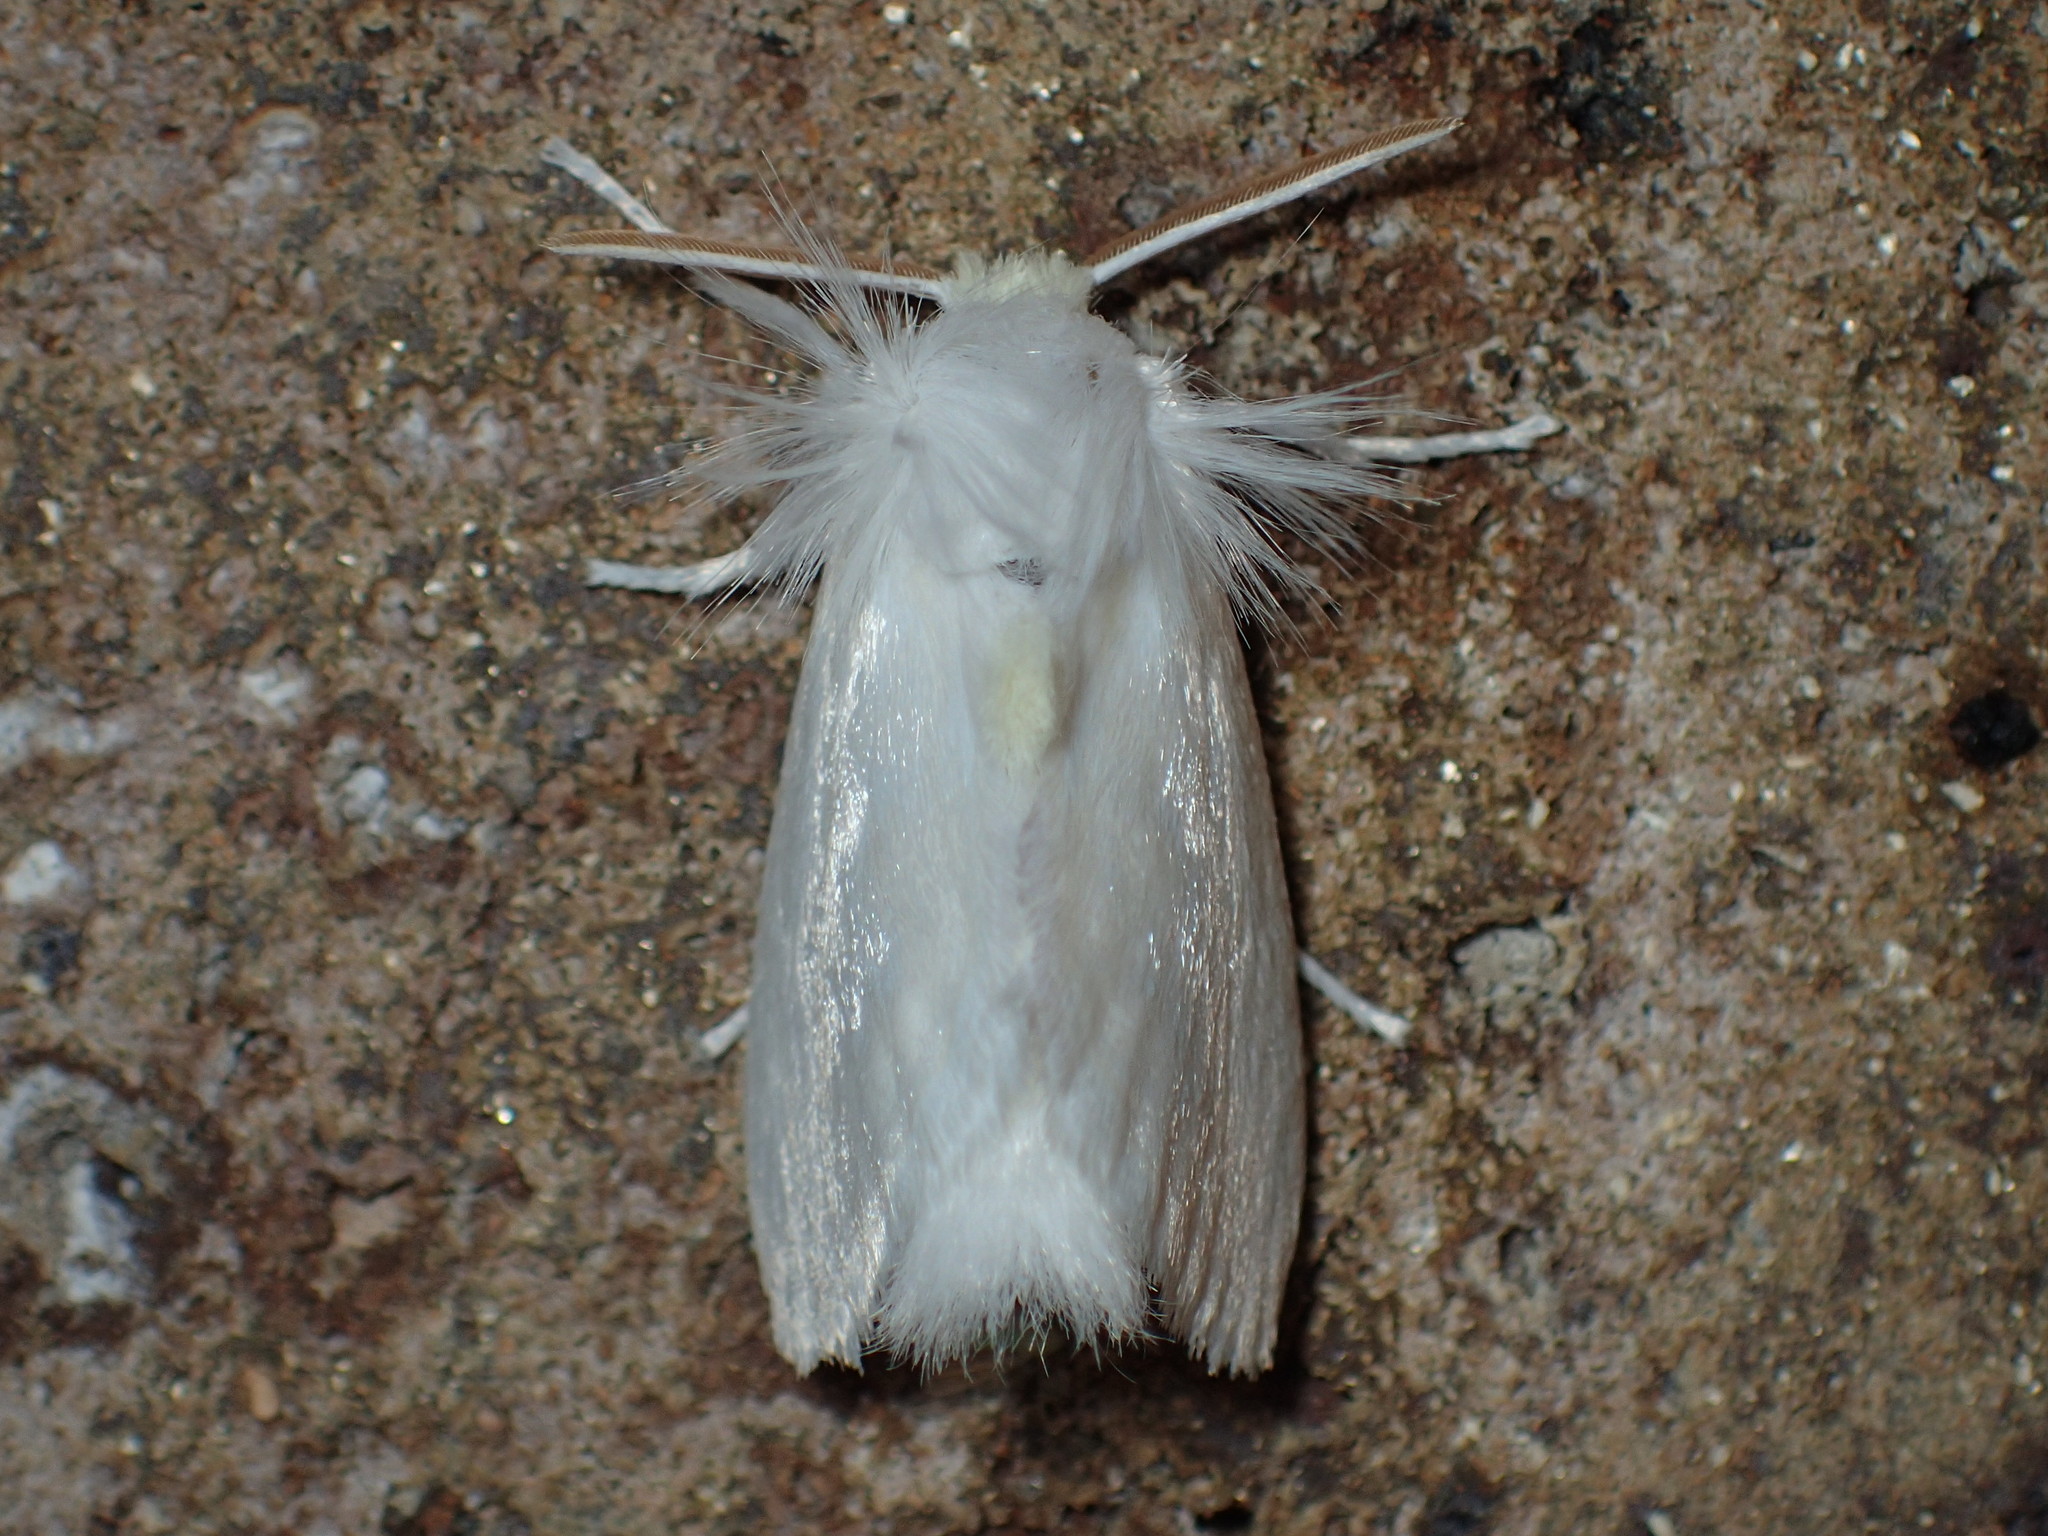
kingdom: Animalia
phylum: Arthropoda
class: Insecta
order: Lepidoptera
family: Megalopygidae
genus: Norape
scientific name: Norape cretata
